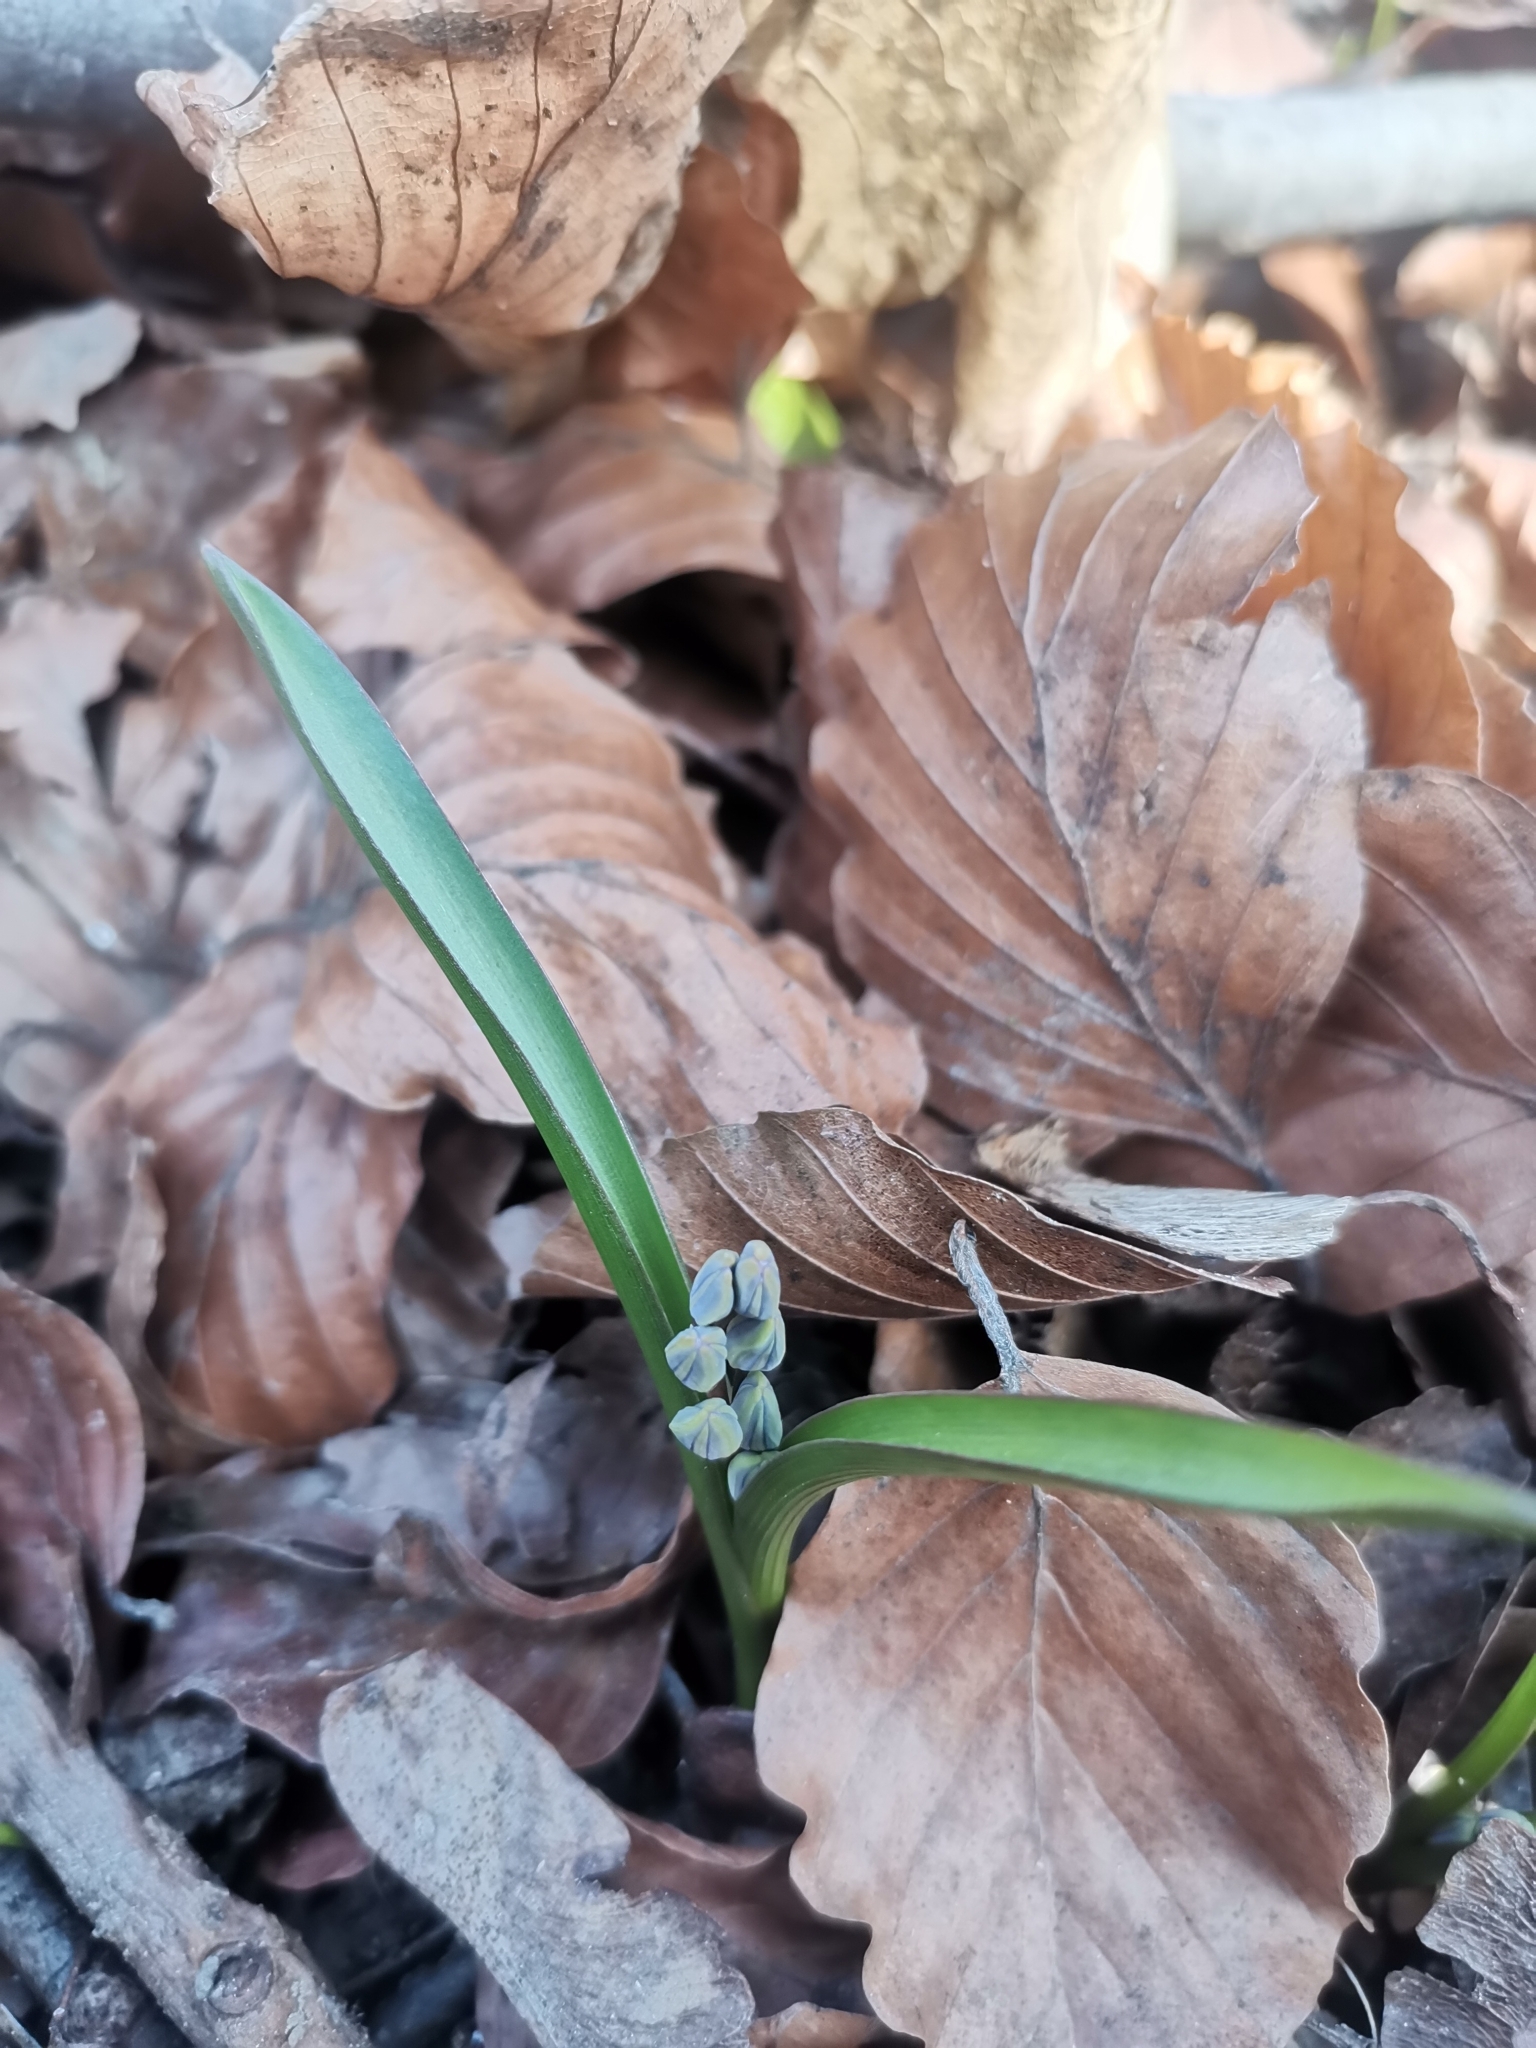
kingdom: Plantae
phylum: Tracheophyta
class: Liliopsida
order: Asparagales
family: Asparagaceae
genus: Scilla
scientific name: Scilla vindobonensis
